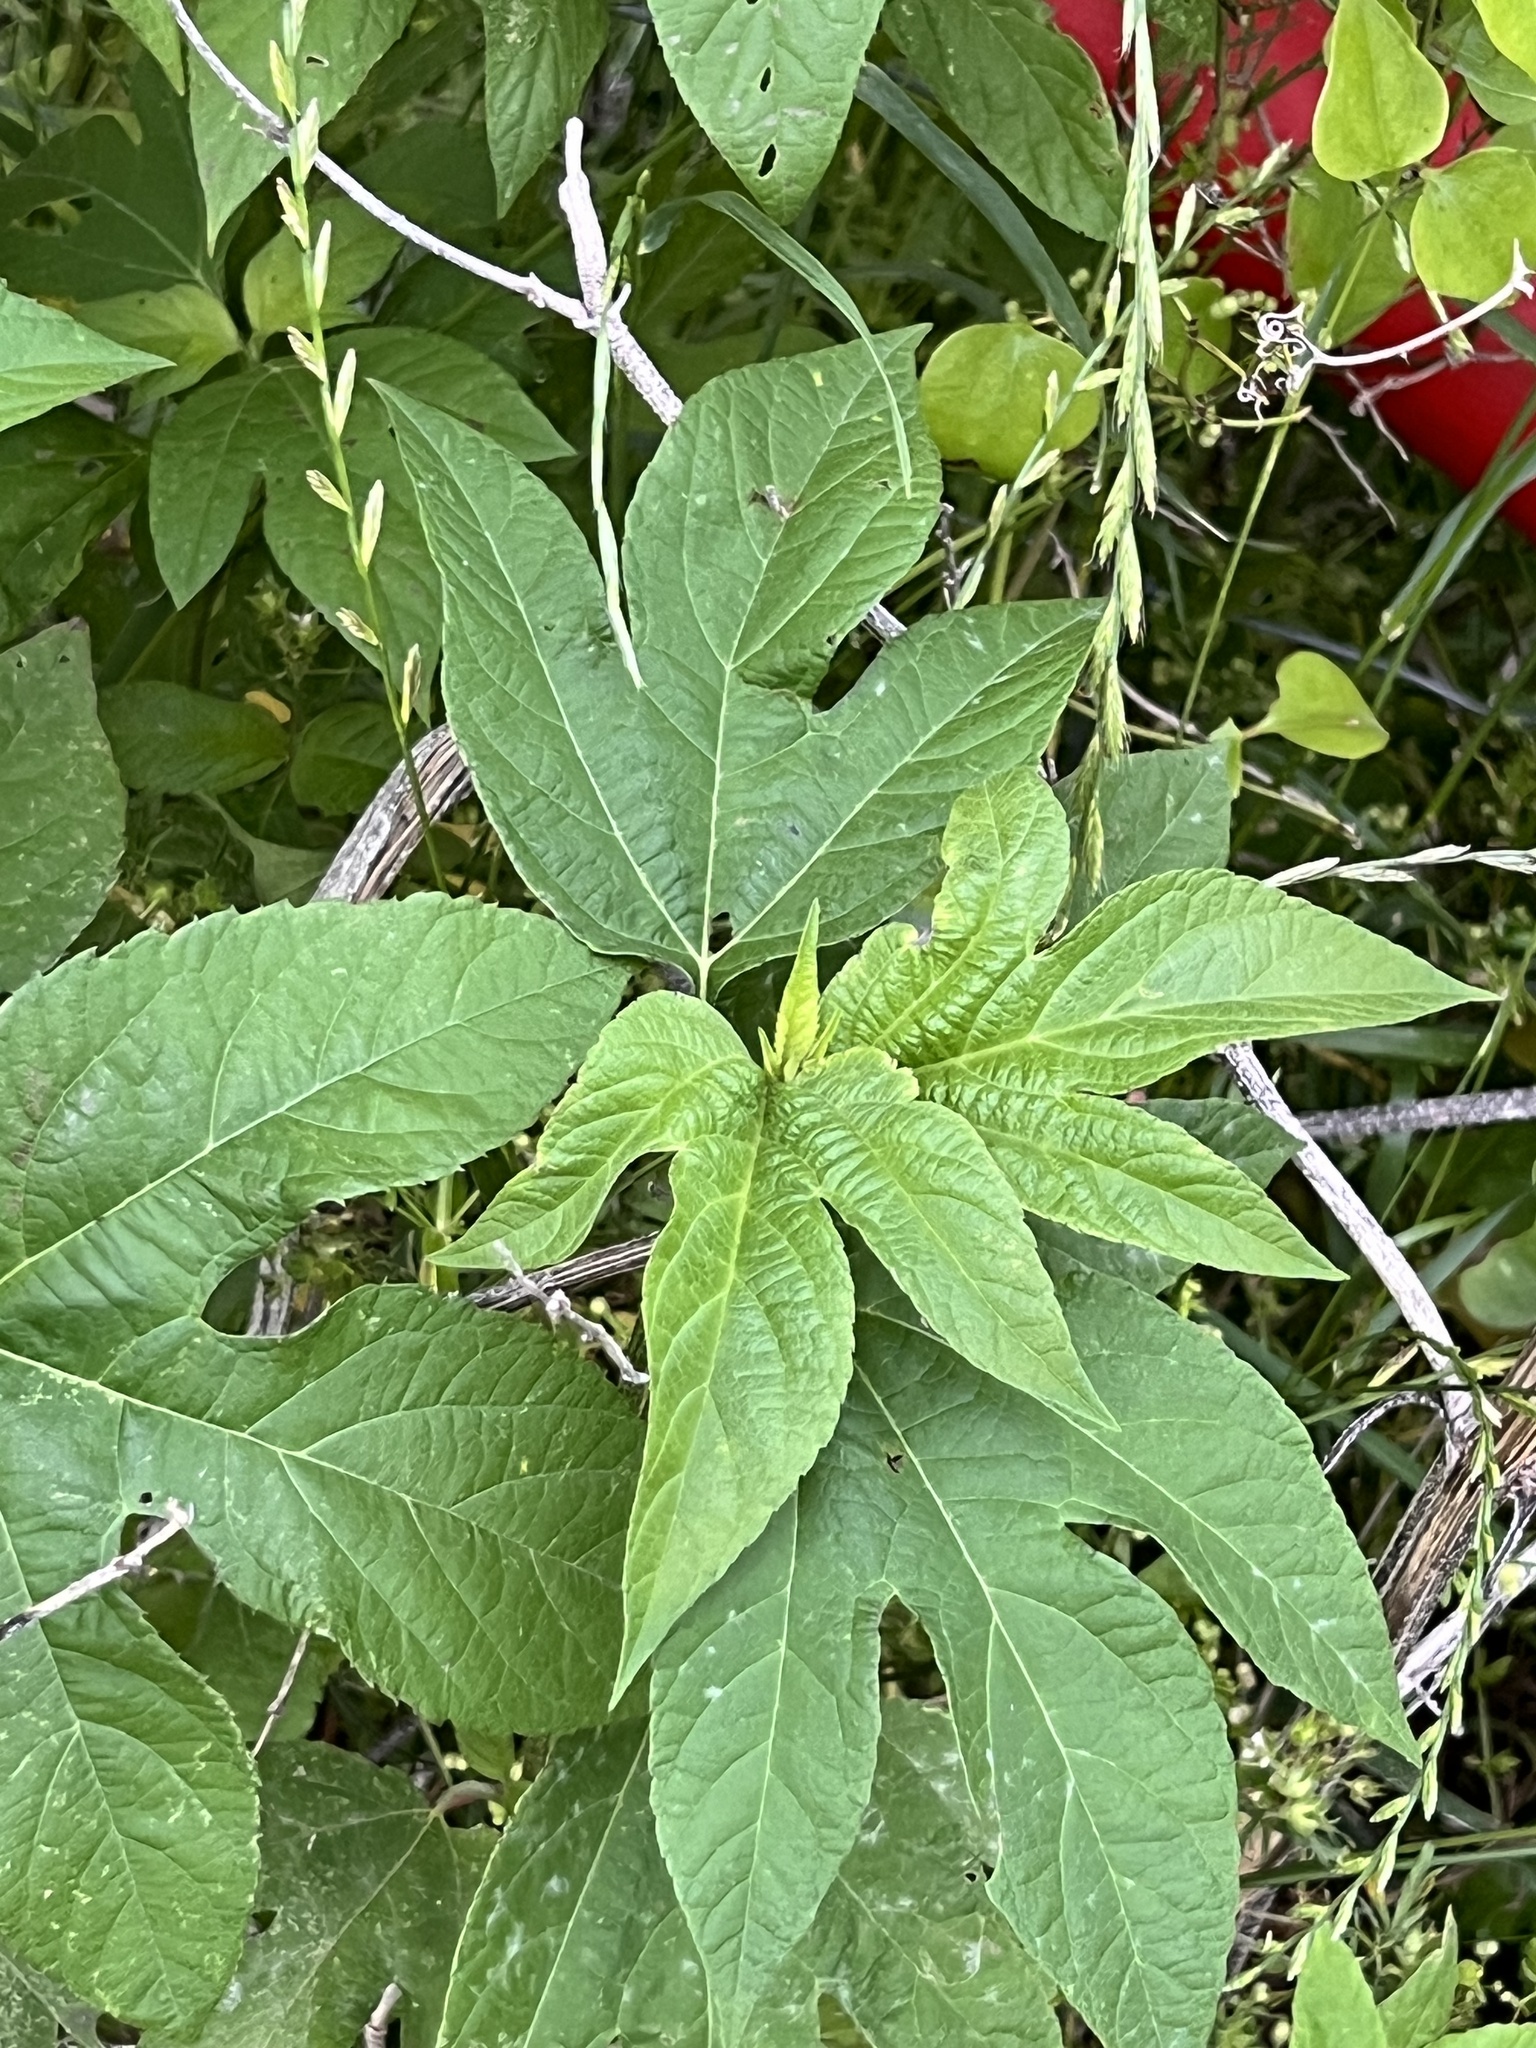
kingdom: Plantae
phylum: Tracheophyta
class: Magnoliopsida
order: Asterales
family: Asteraceae
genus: Ambrosia
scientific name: Ambrosia trifida
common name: Giant ragweed
